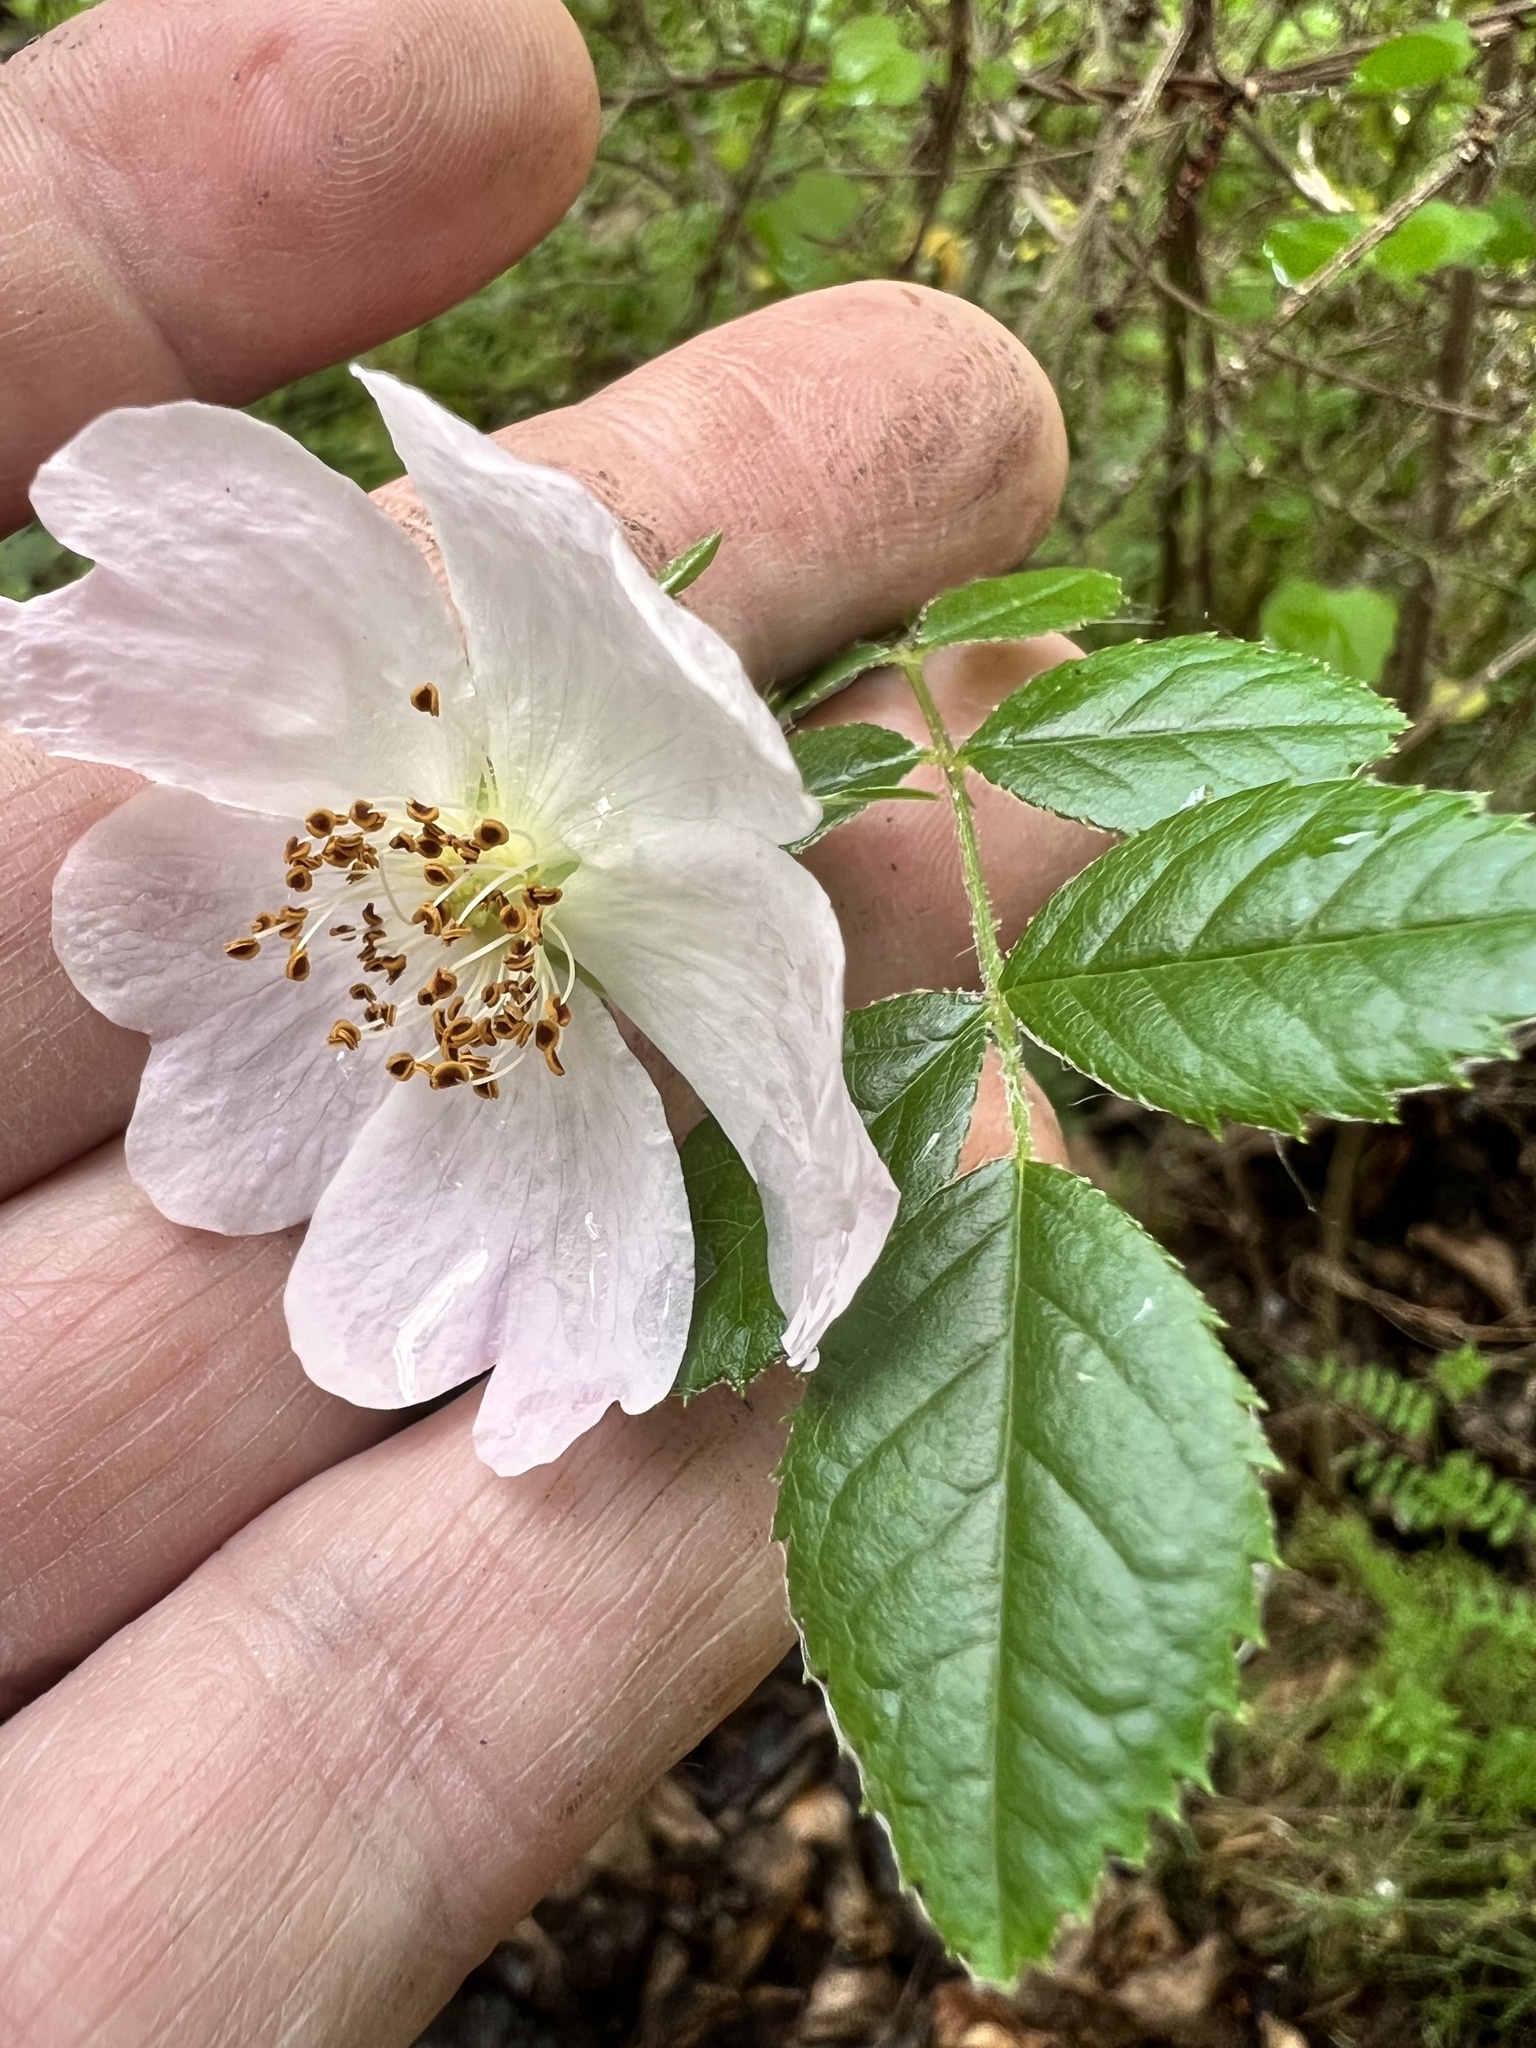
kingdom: Plantae
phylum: Tracheophyta
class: Magnoliopsida
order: Rosales
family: Rosaceae
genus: Rosa
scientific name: Rosa rubiginosa
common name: Sweet-briar
